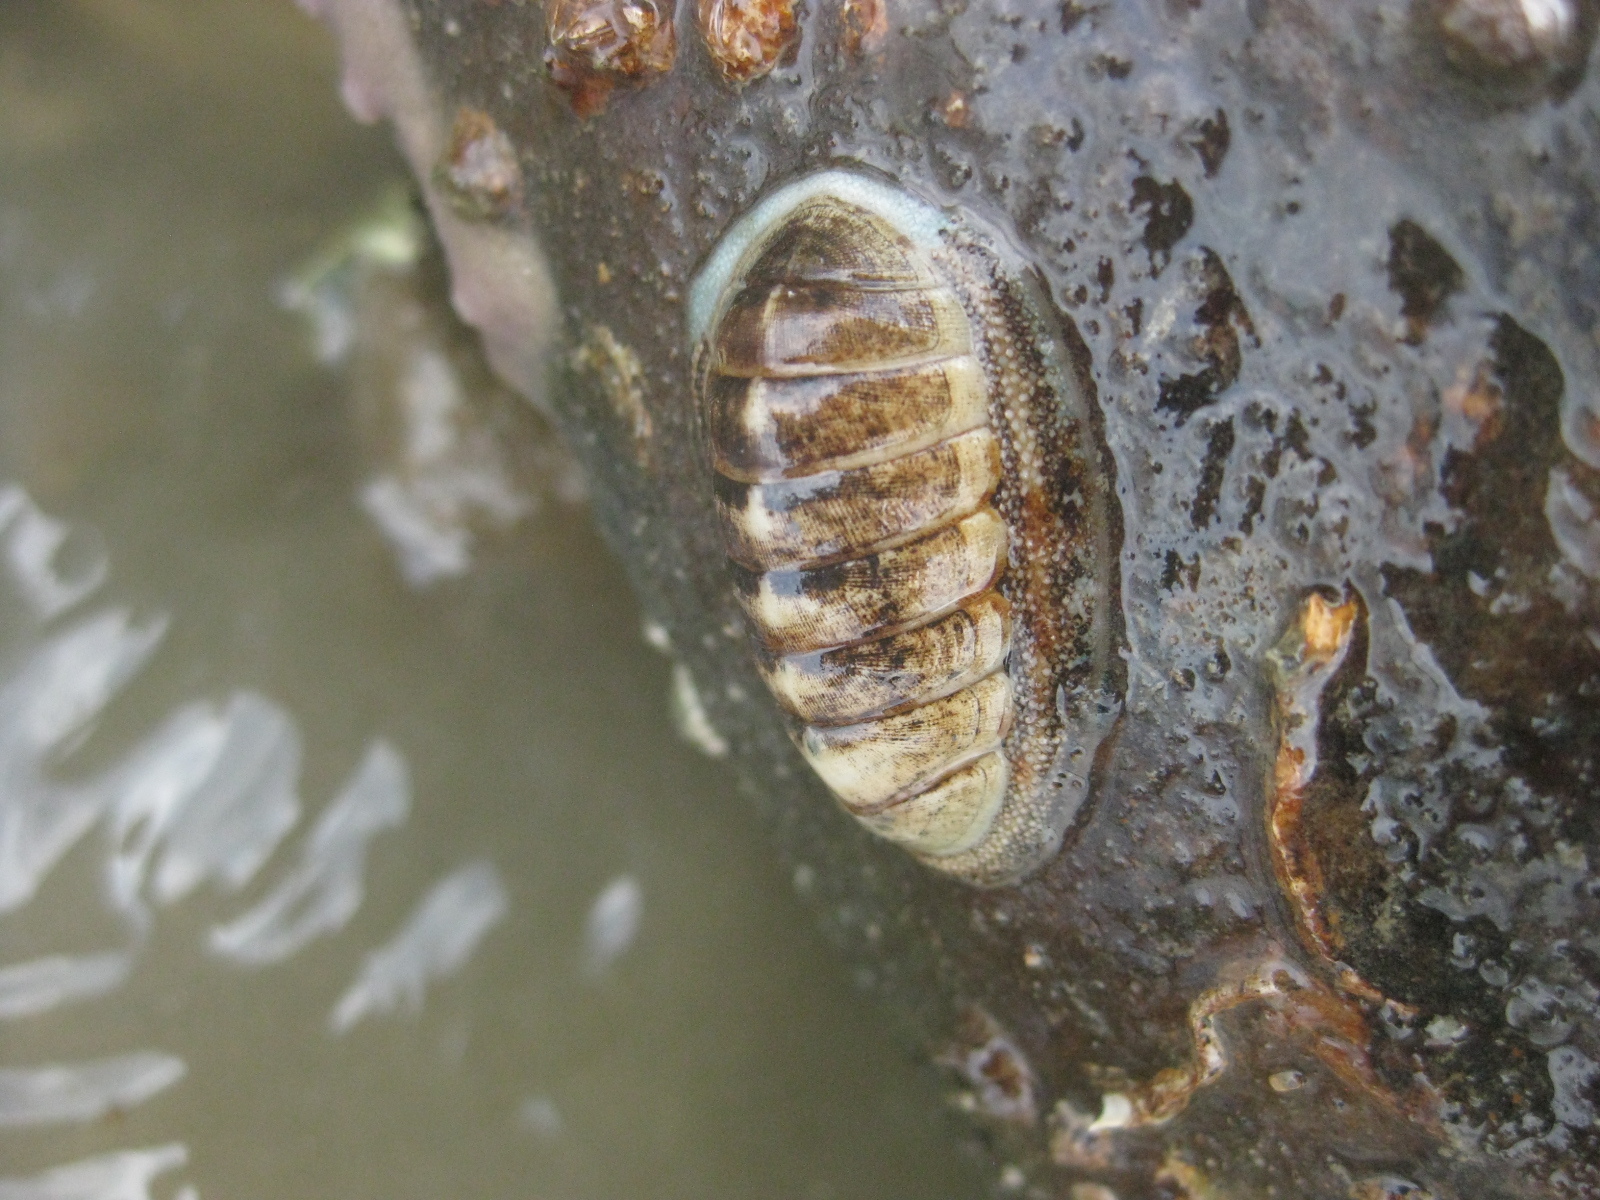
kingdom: Animalia
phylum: Mollusca
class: Polyplacophora
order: Chitonida
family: Chitonidae
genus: Chiton
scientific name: Chiton glaucus
